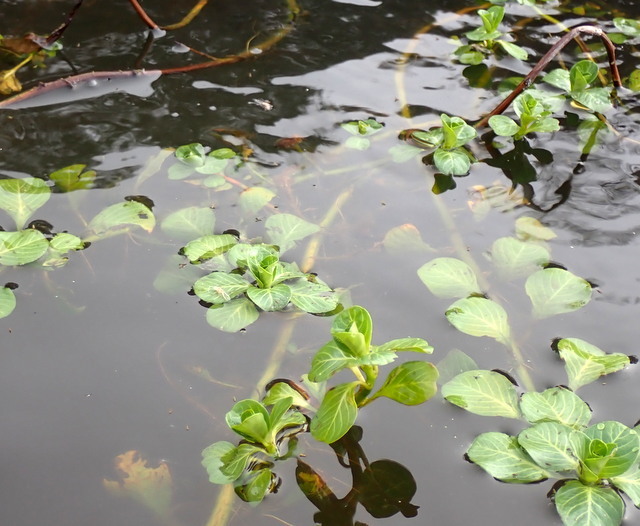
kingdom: Plantae
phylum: Tracheophyta
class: Magnoliopsida
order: Myrtales
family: Onagraceae
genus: Ludwigia
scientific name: Ludwigia peploides
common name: Floating primrose-willow
